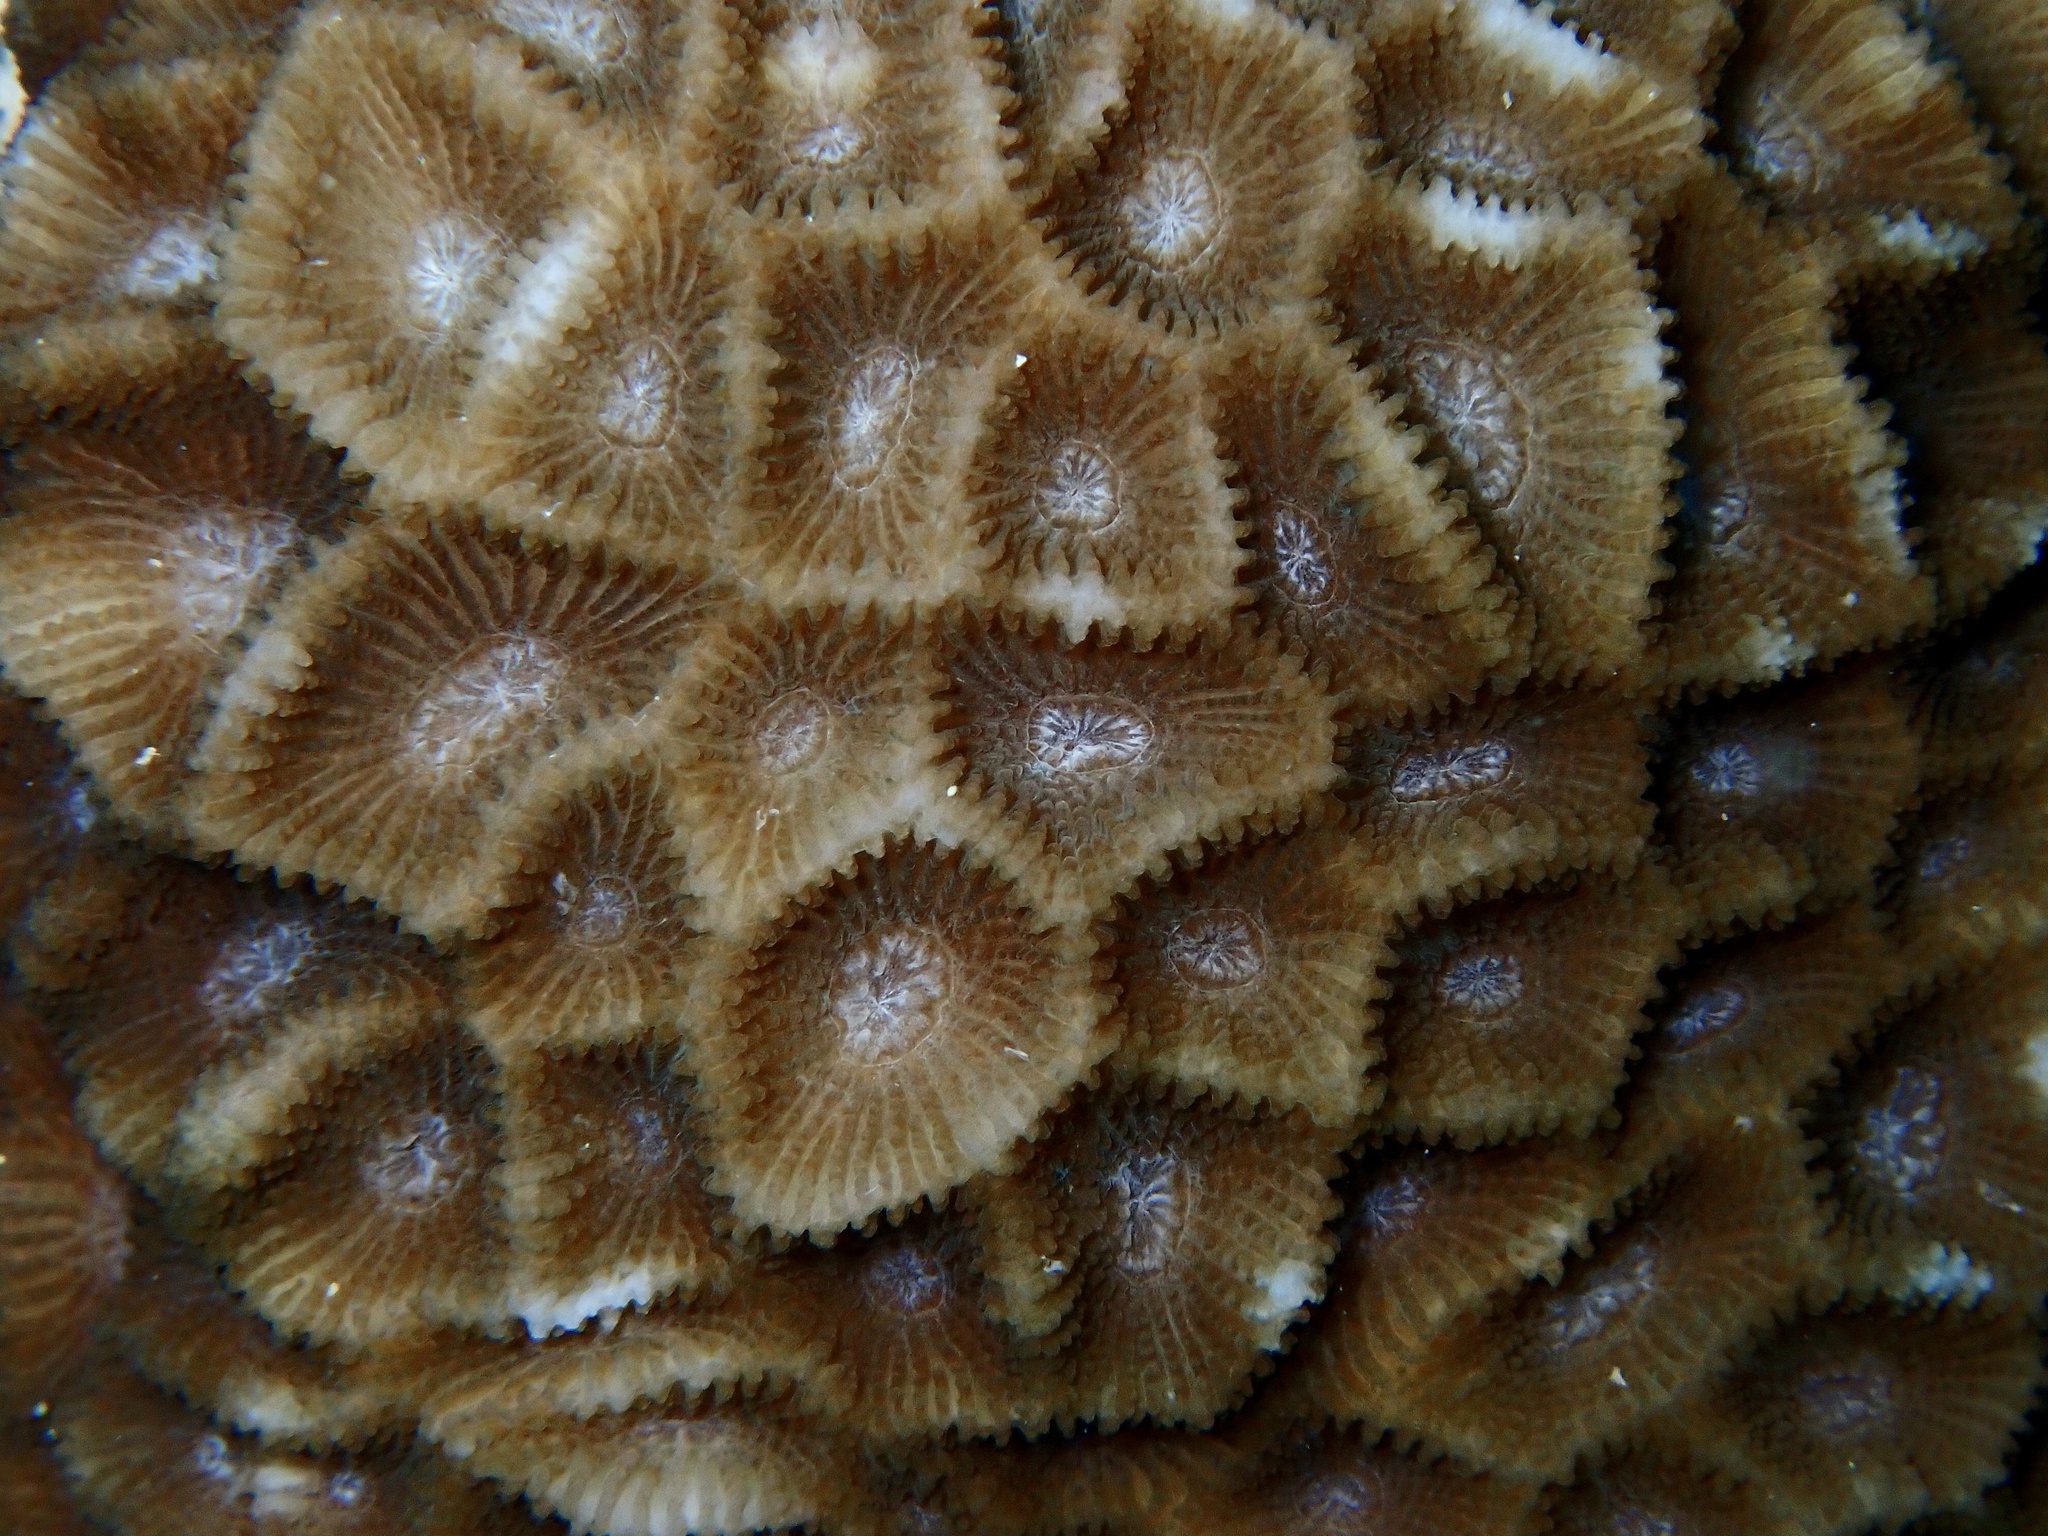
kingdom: Animalia
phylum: Cnidaria
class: Anthozoa
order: Scleractinia
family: Merulinidae
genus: Paramontastraea
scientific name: Paramontastraea peresi
